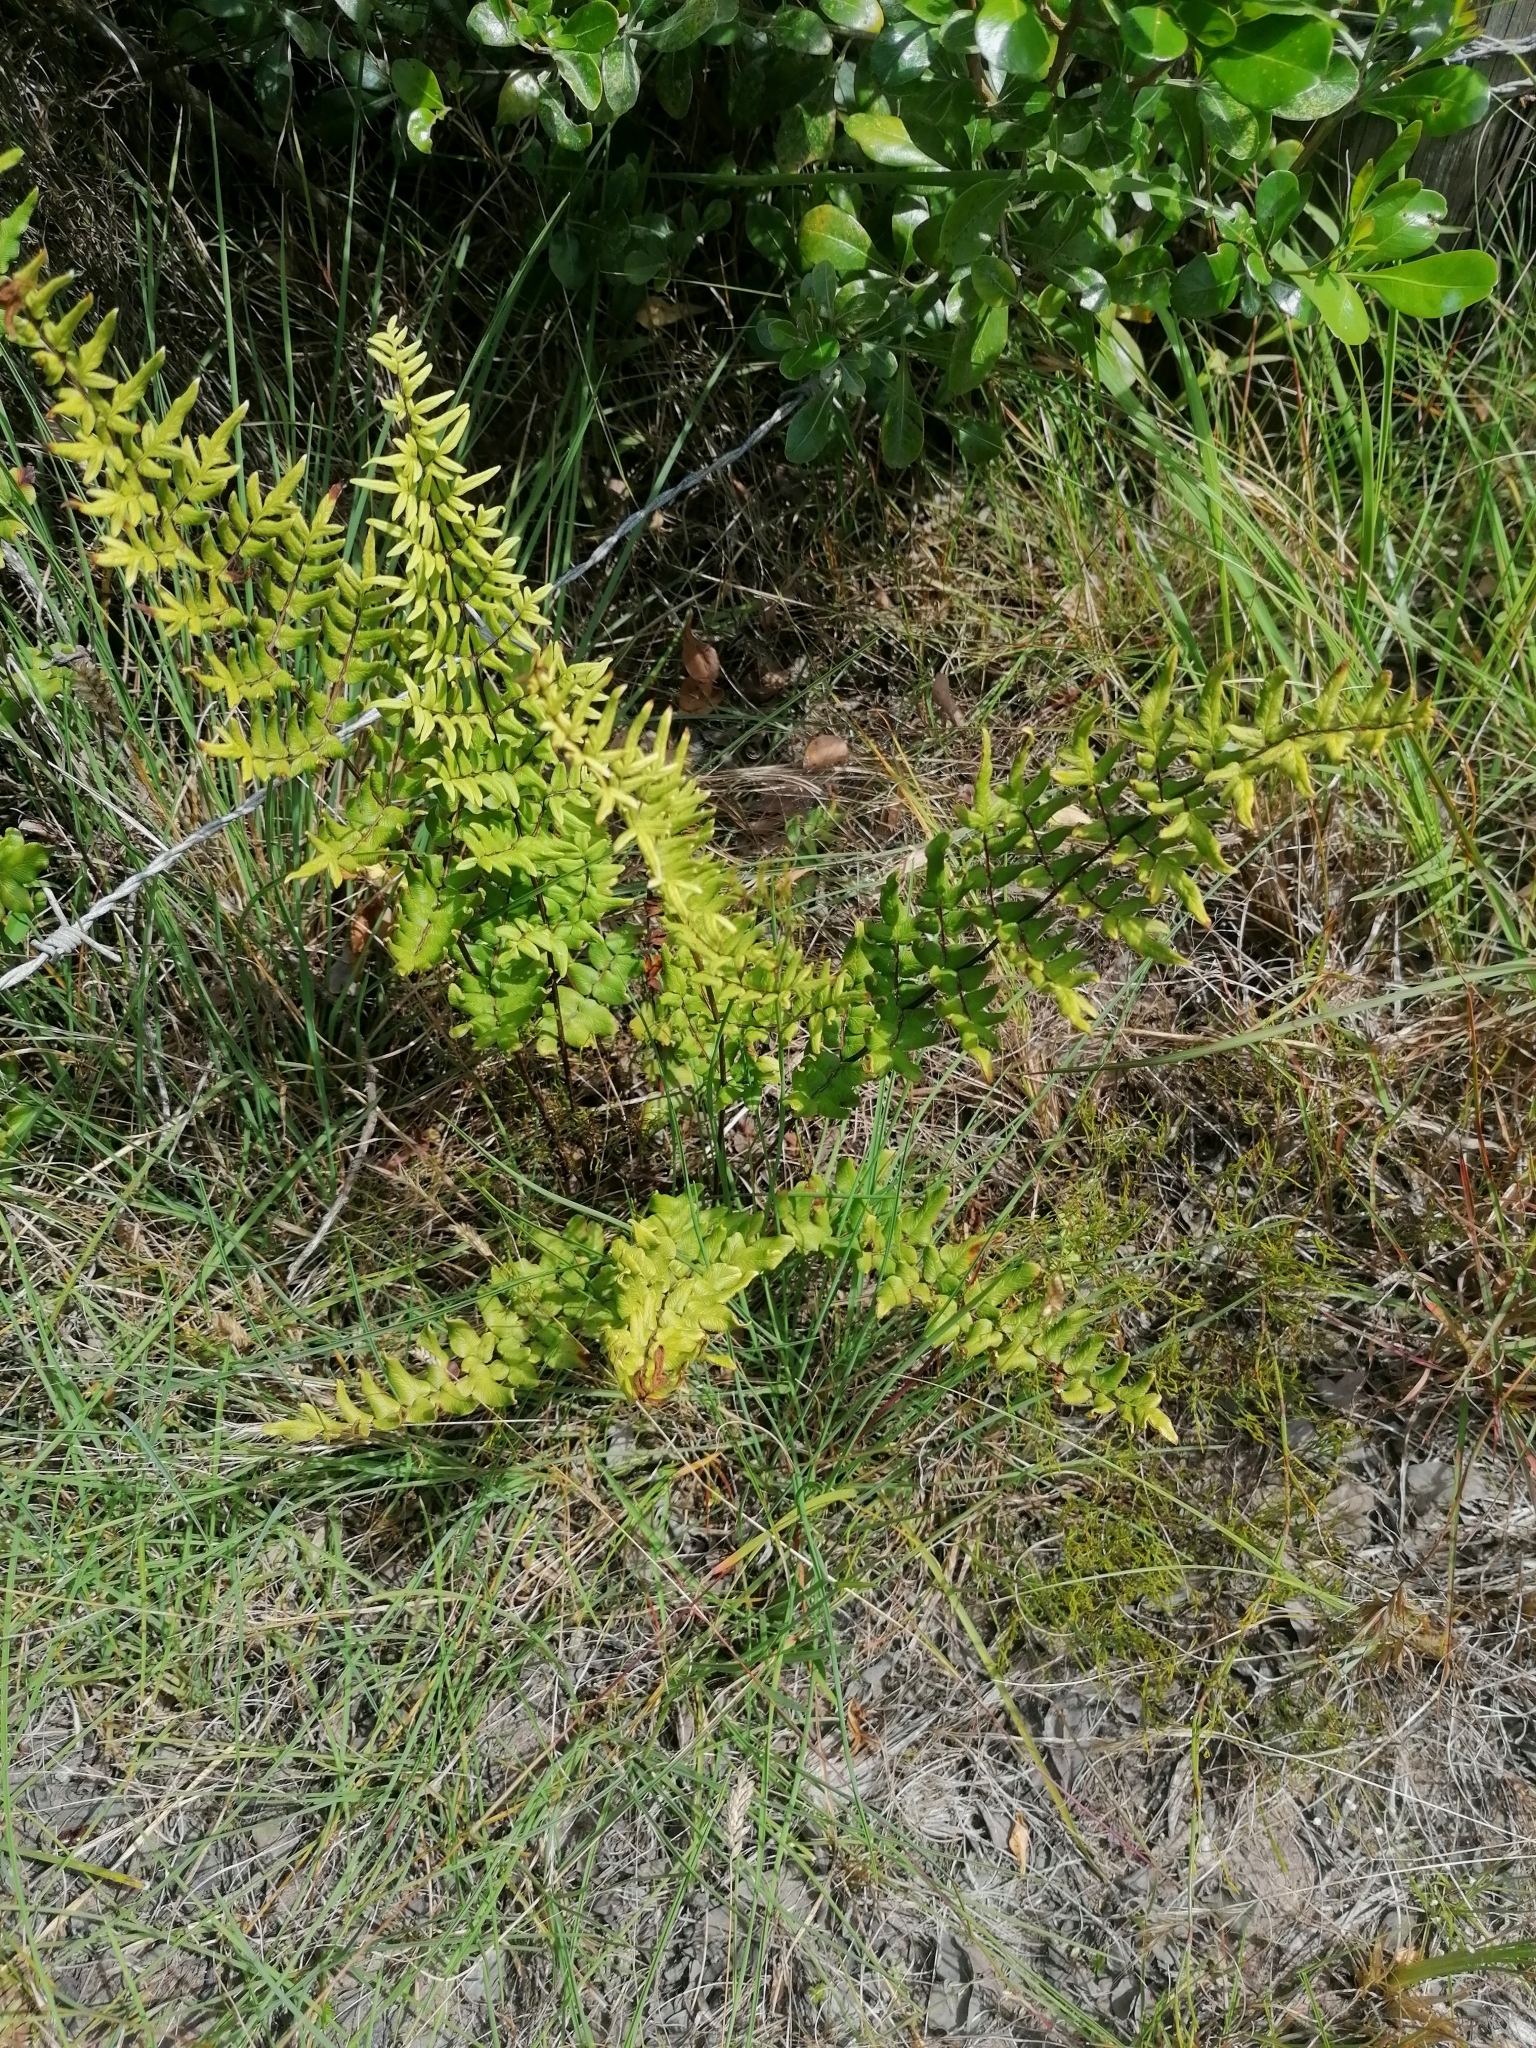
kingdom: Plantae
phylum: Tracheophyta
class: Polypodiopsida
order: Polypodiales
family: Pteridaceae
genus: Cheilanthes
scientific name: Cheilanthes viridis
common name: Green cliffbrake
